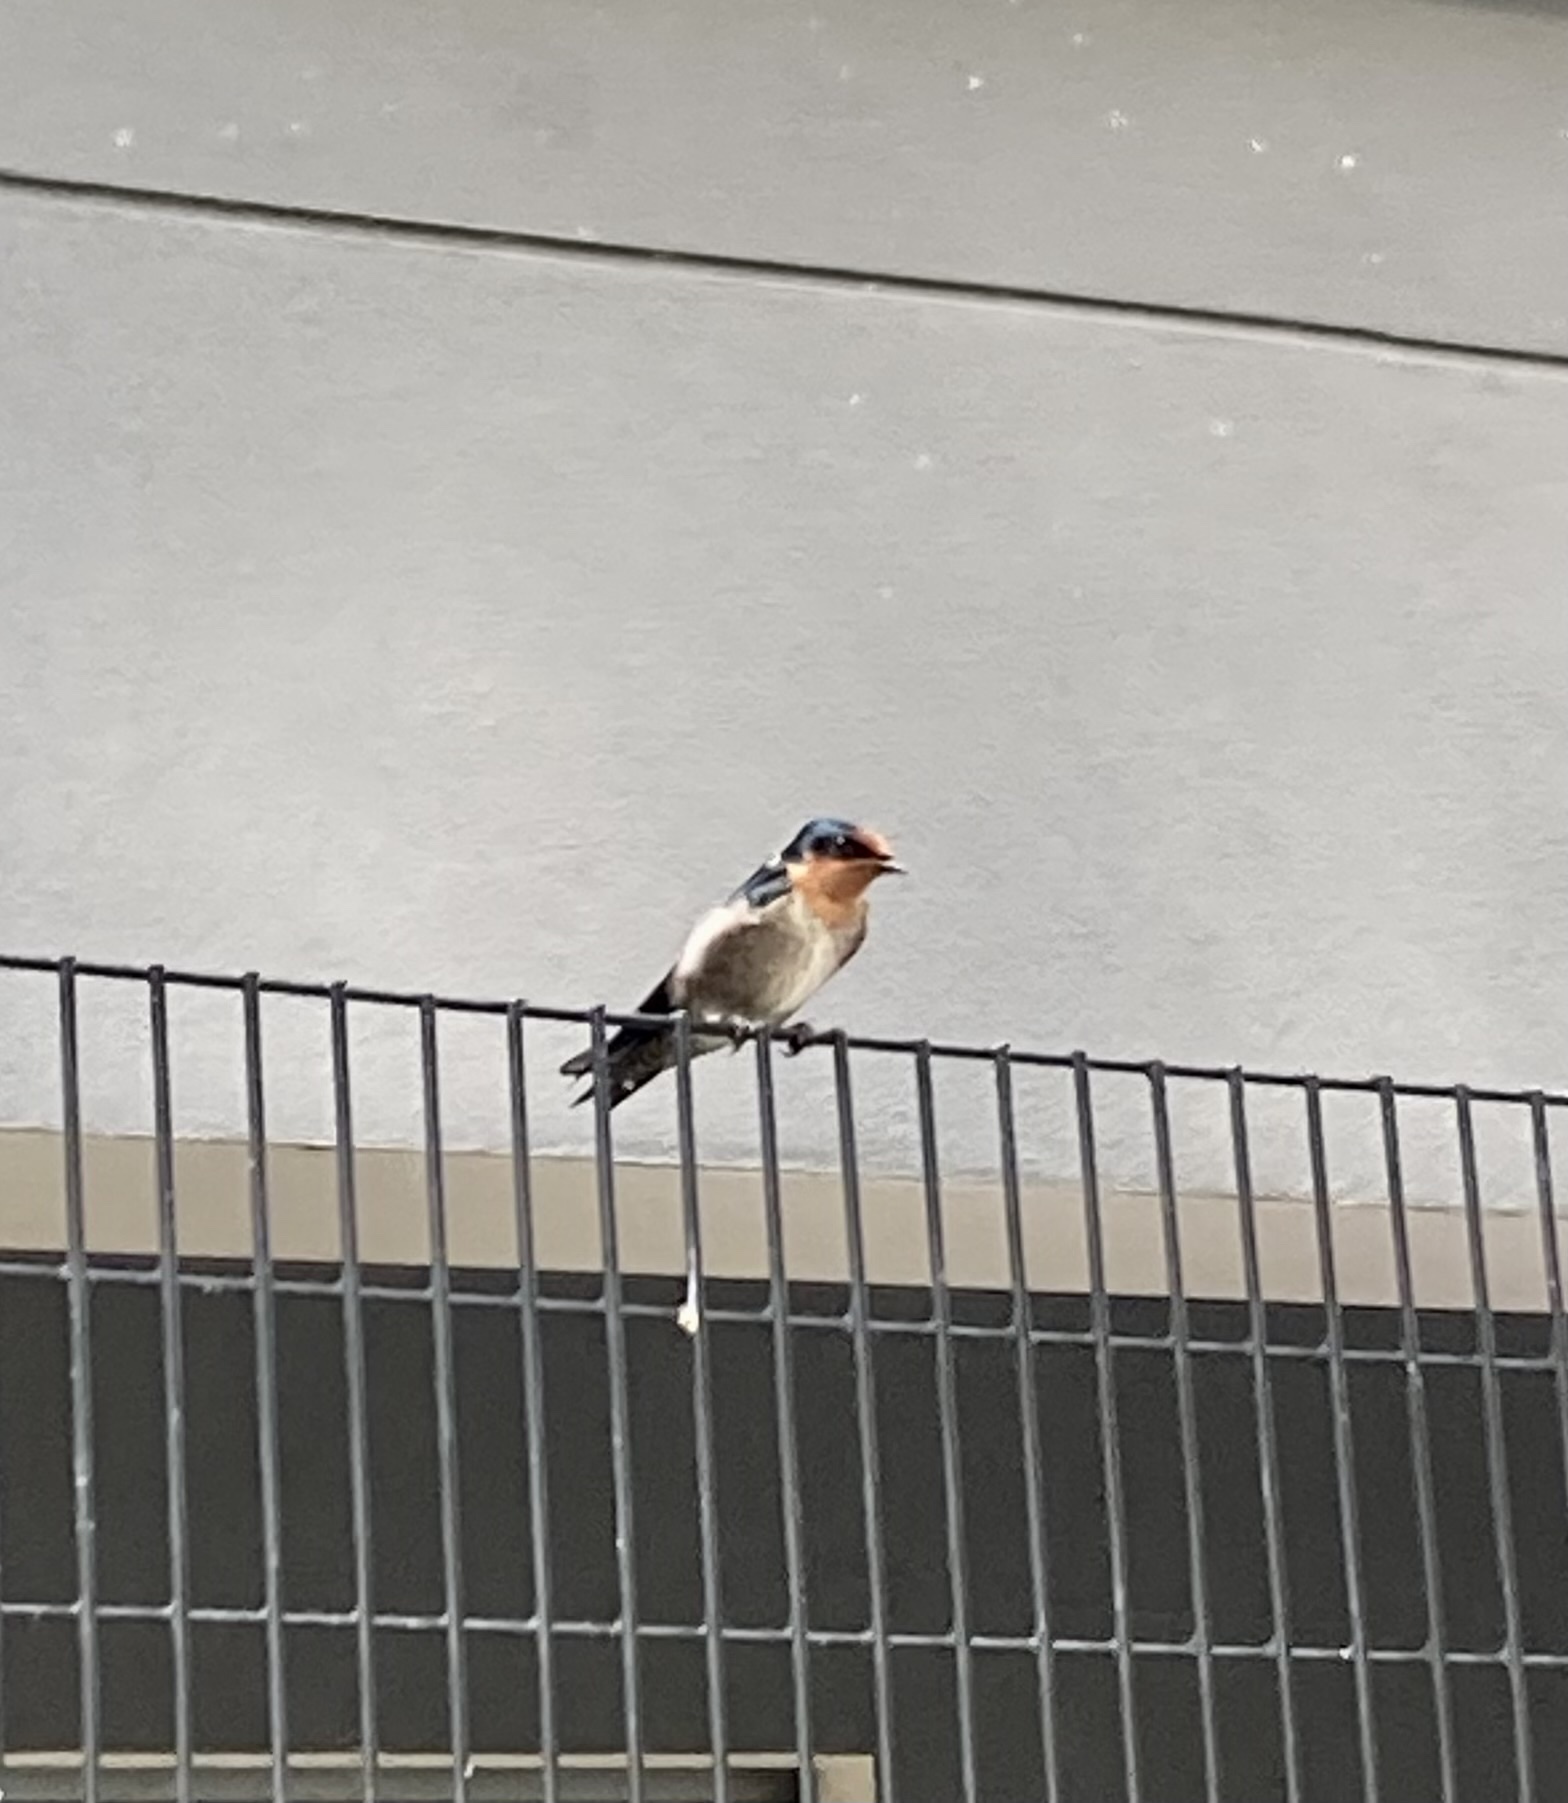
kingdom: Animalia
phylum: Chordata
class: Aves
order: Passeriformes
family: Hirundinidae
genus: Hirundo
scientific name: Hirundo tahitica
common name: Pacific swallow
